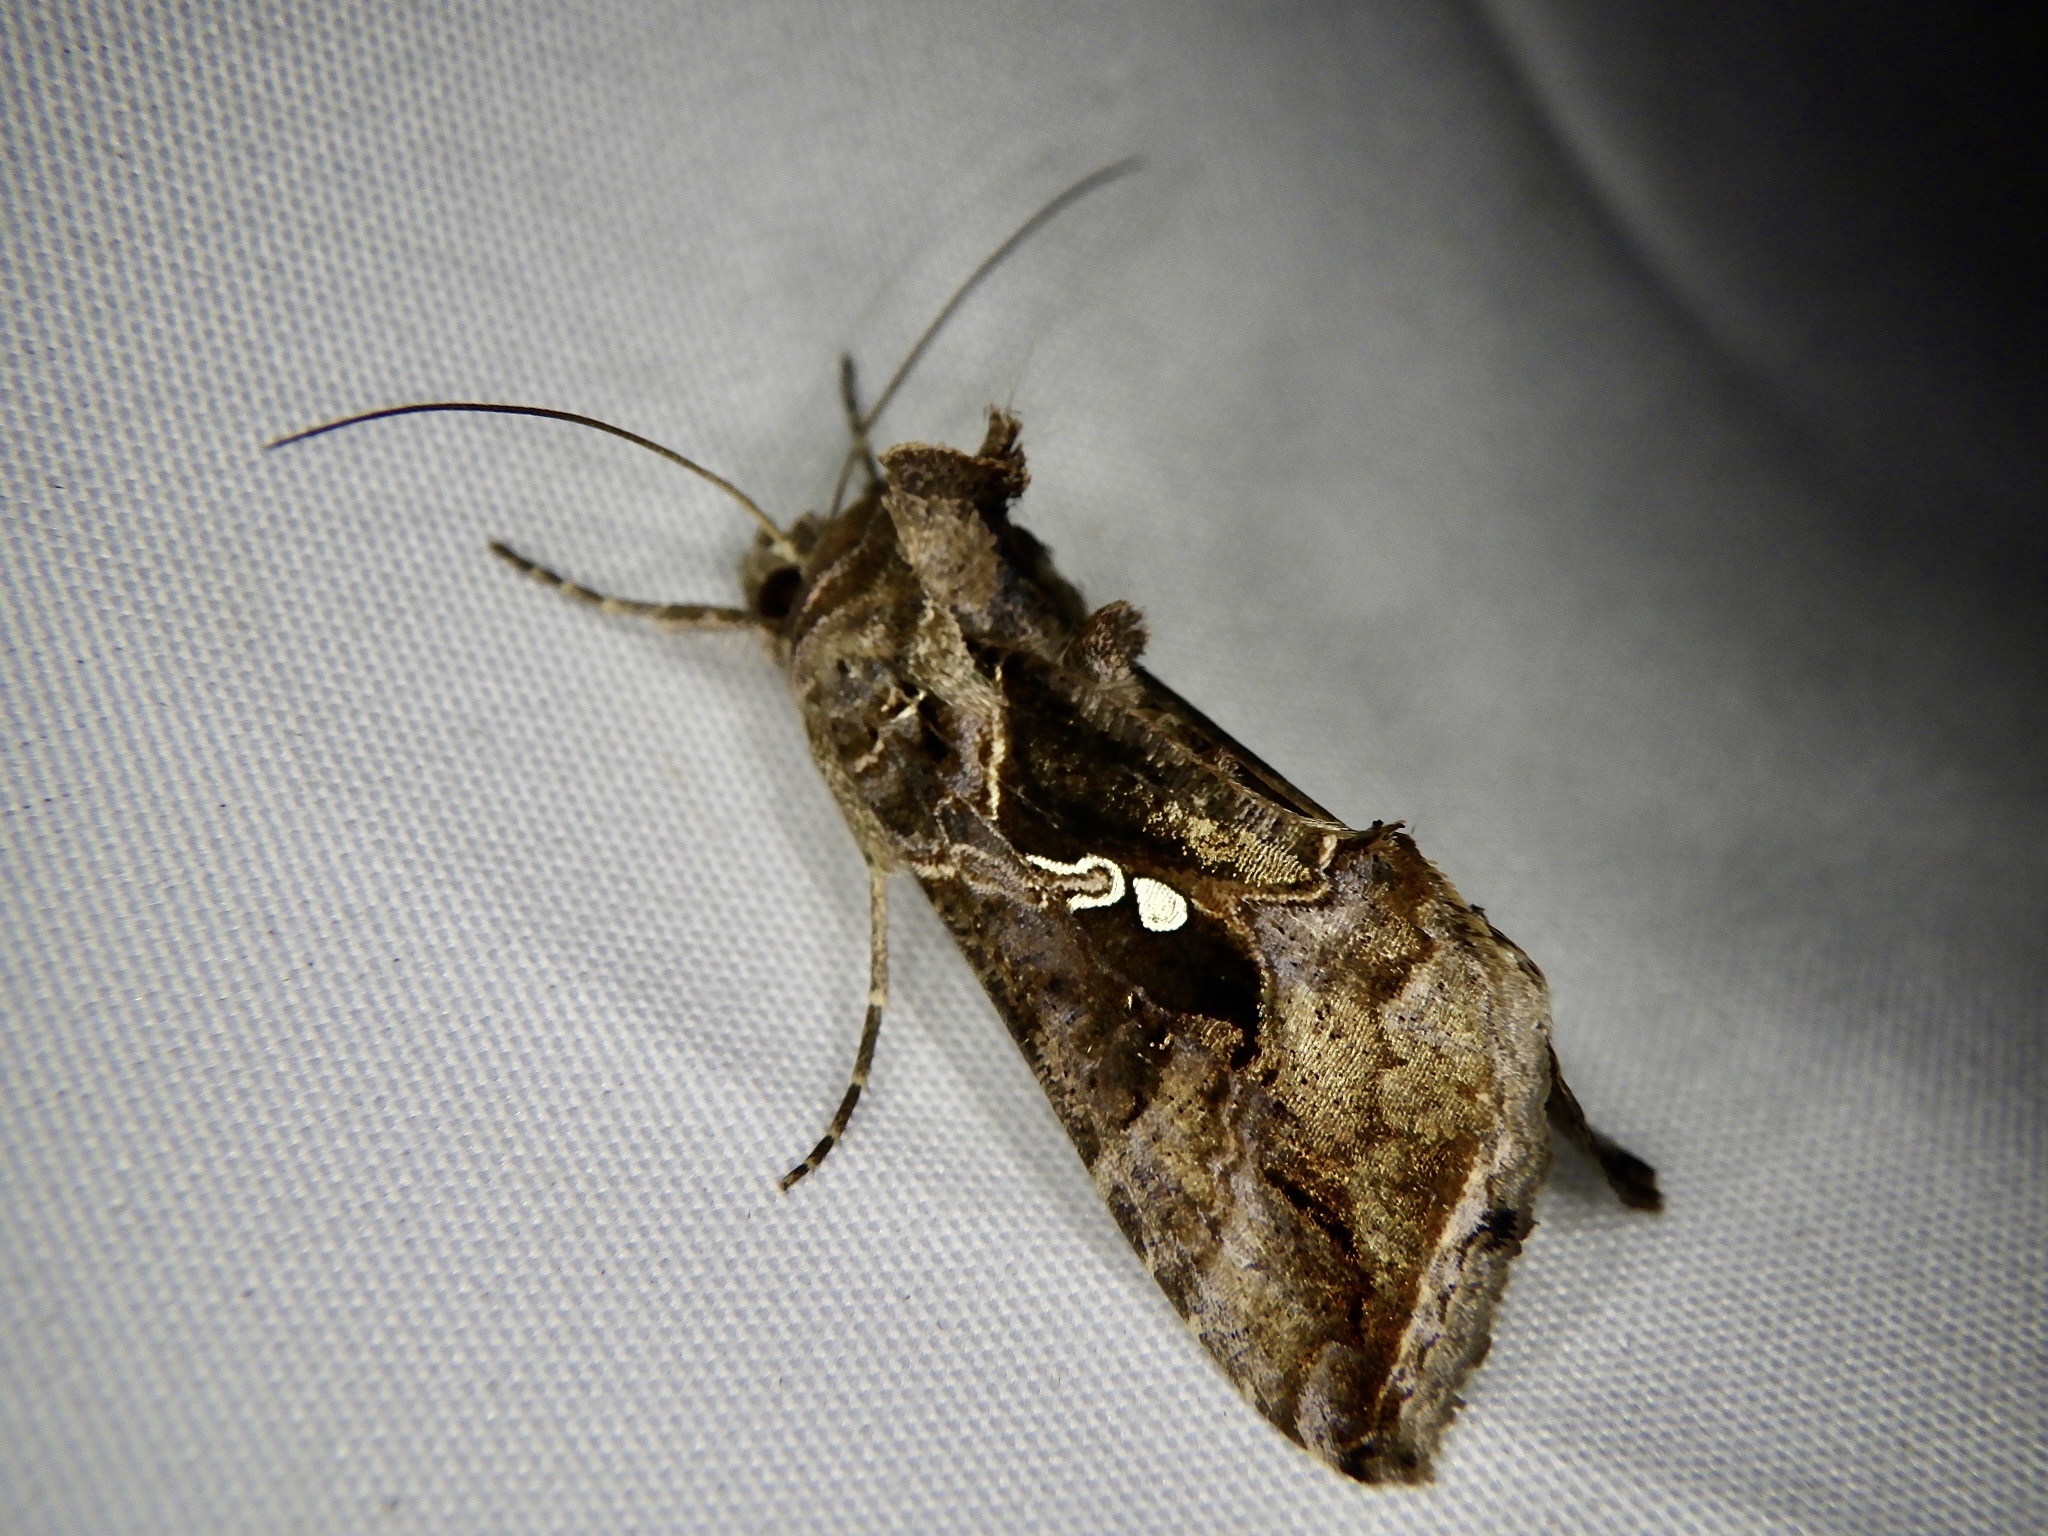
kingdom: Animalia
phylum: Arthropoda
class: Insecta
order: Lepidoptera
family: Noctuidae
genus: Ctenoplusia
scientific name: Ctenoplusia agnata
